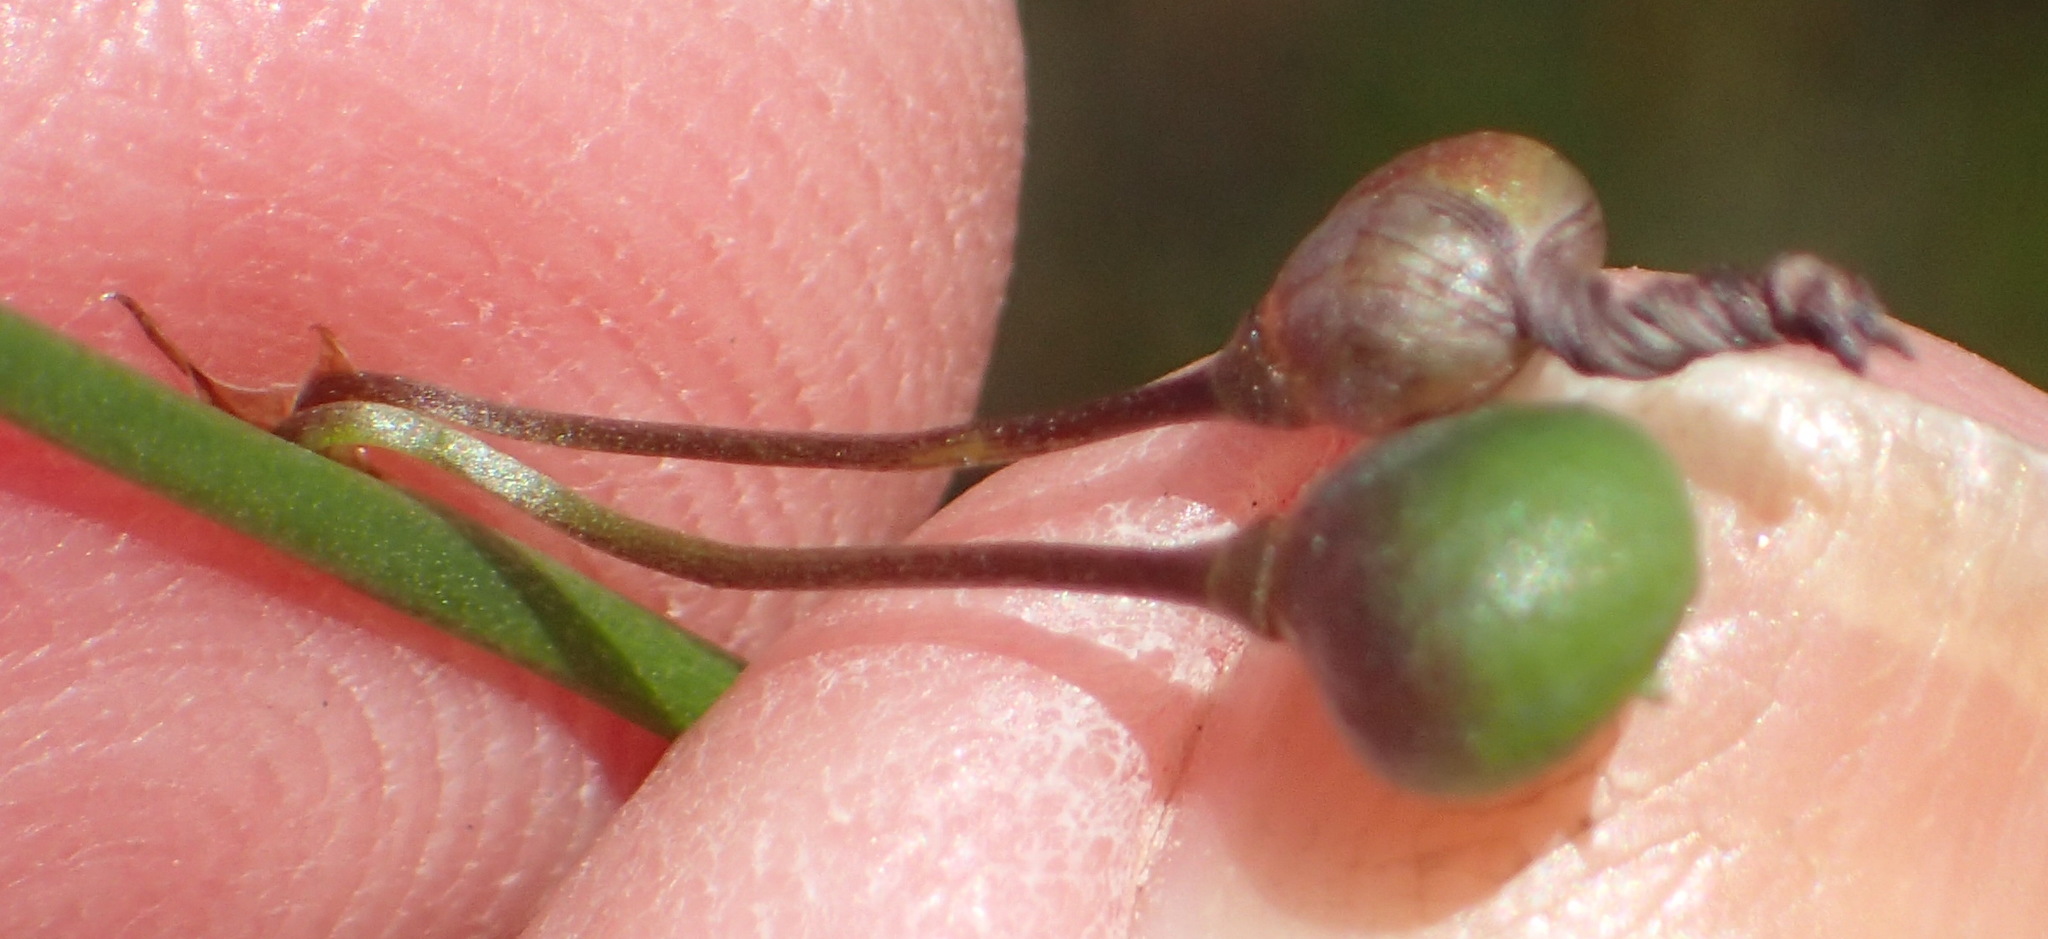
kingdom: Plantae
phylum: Tracheophyta
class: Liliopsida
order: Asparagales
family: Asphodelaceae
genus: Caesia
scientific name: Caesia contorta
